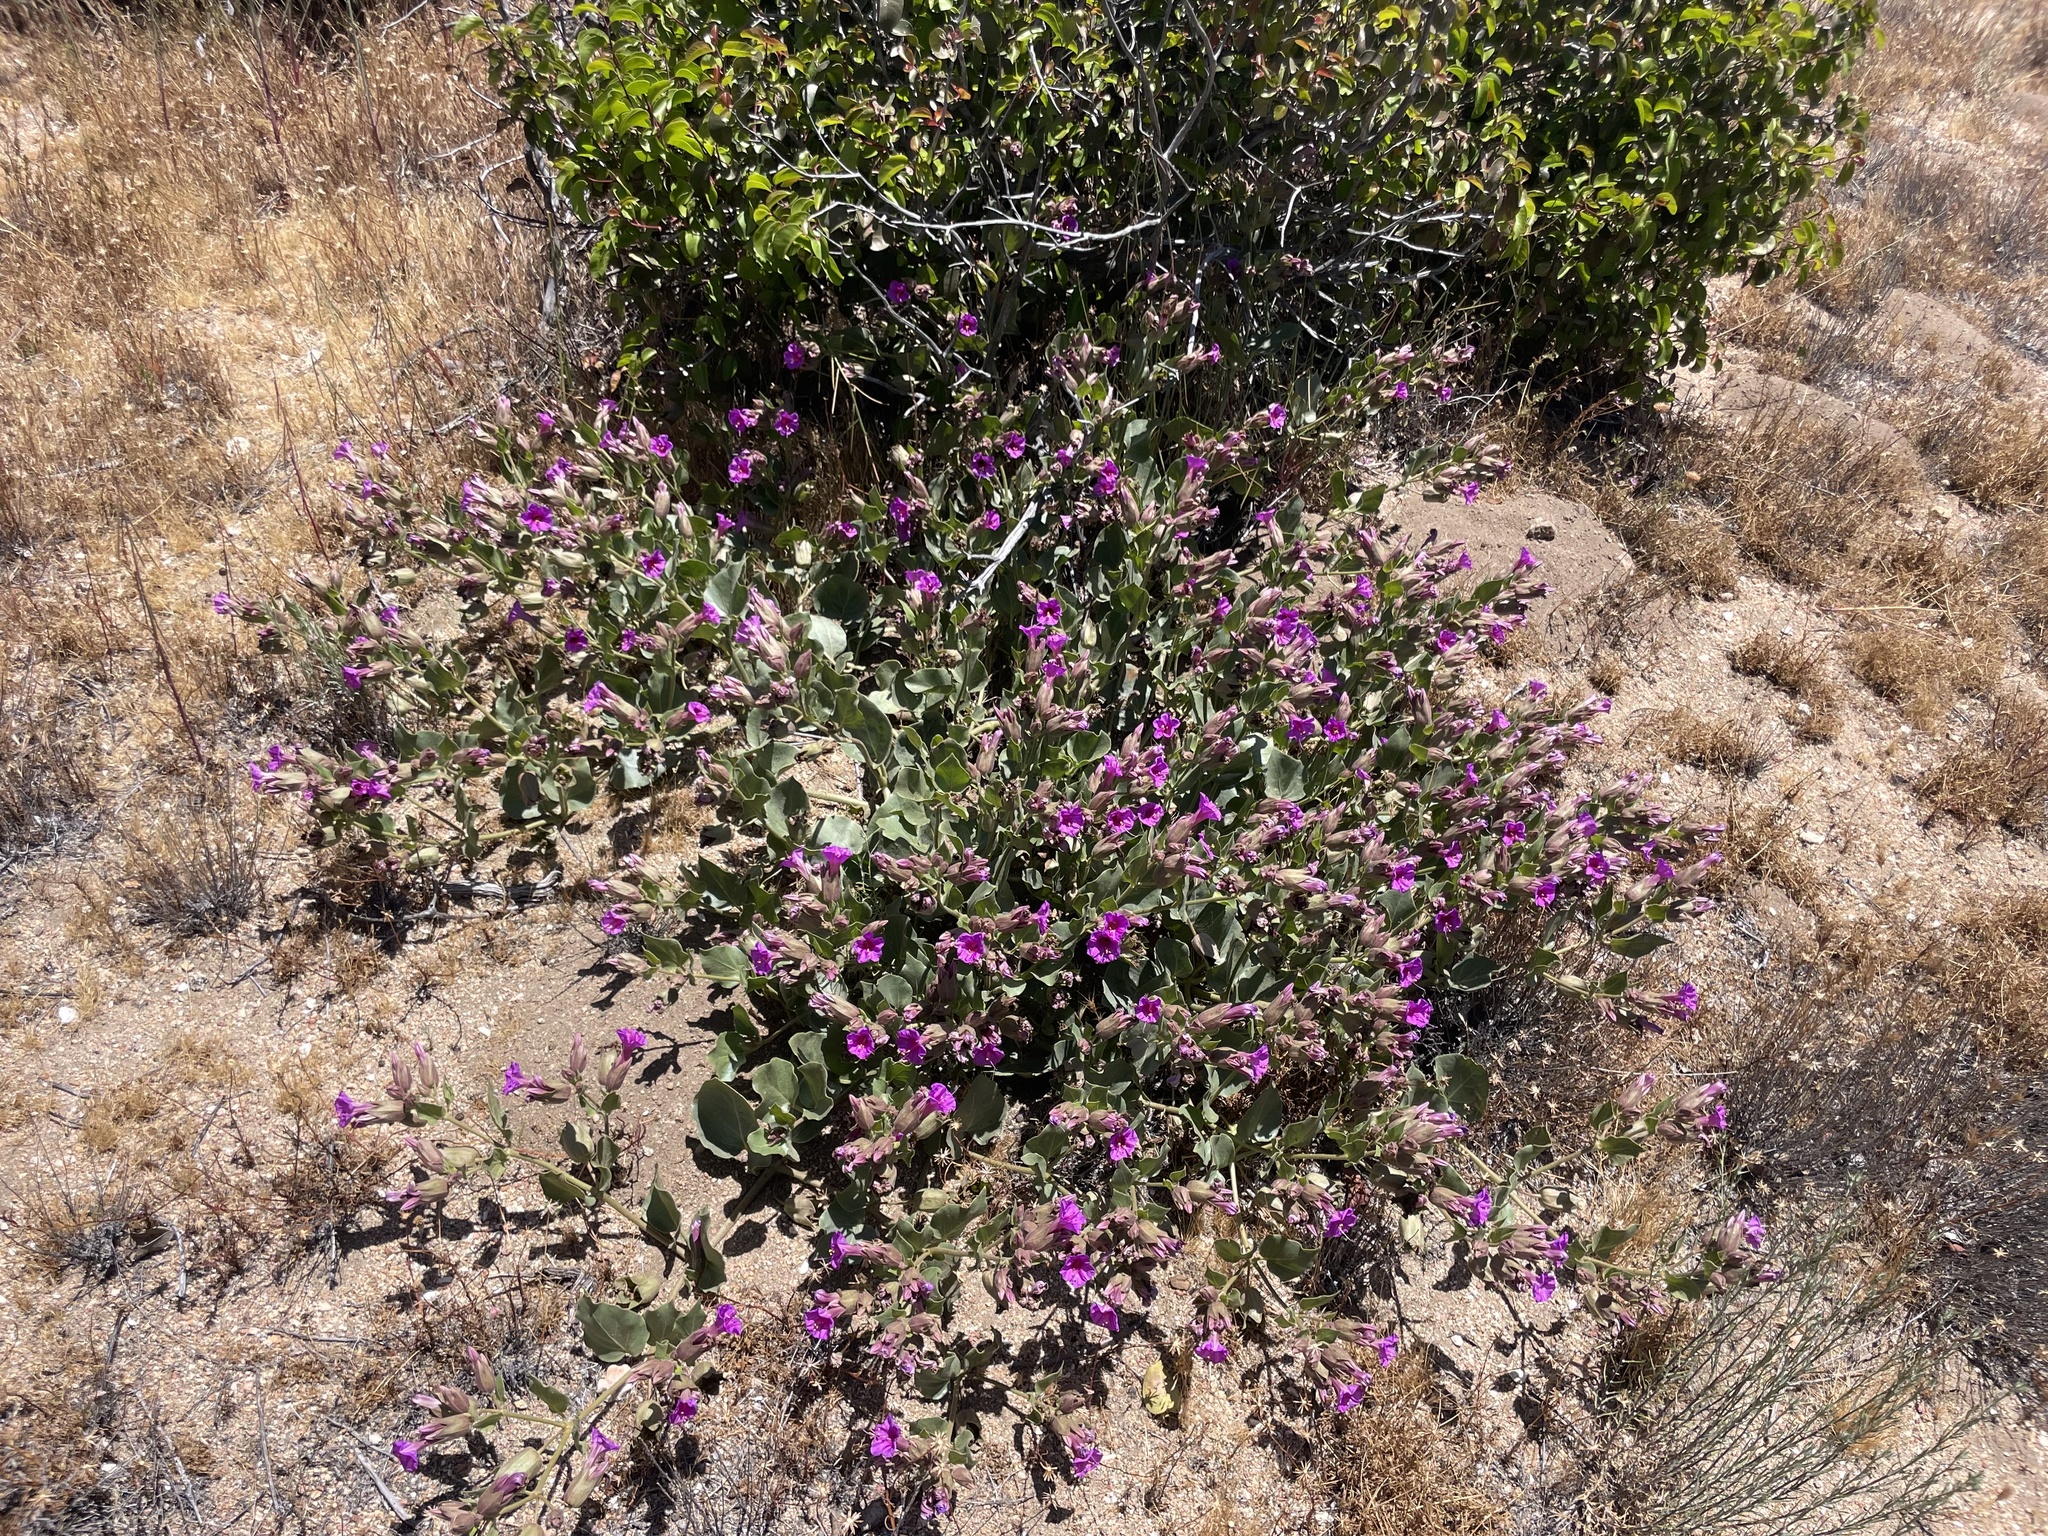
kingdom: Plantae
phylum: Tracheophyta
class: Magnoliopsida
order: Caryophyllales
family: Nyctaginaceae
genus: Mirabilis
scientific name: Mirabilis multiflora
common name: Froebel's four-o'clock
